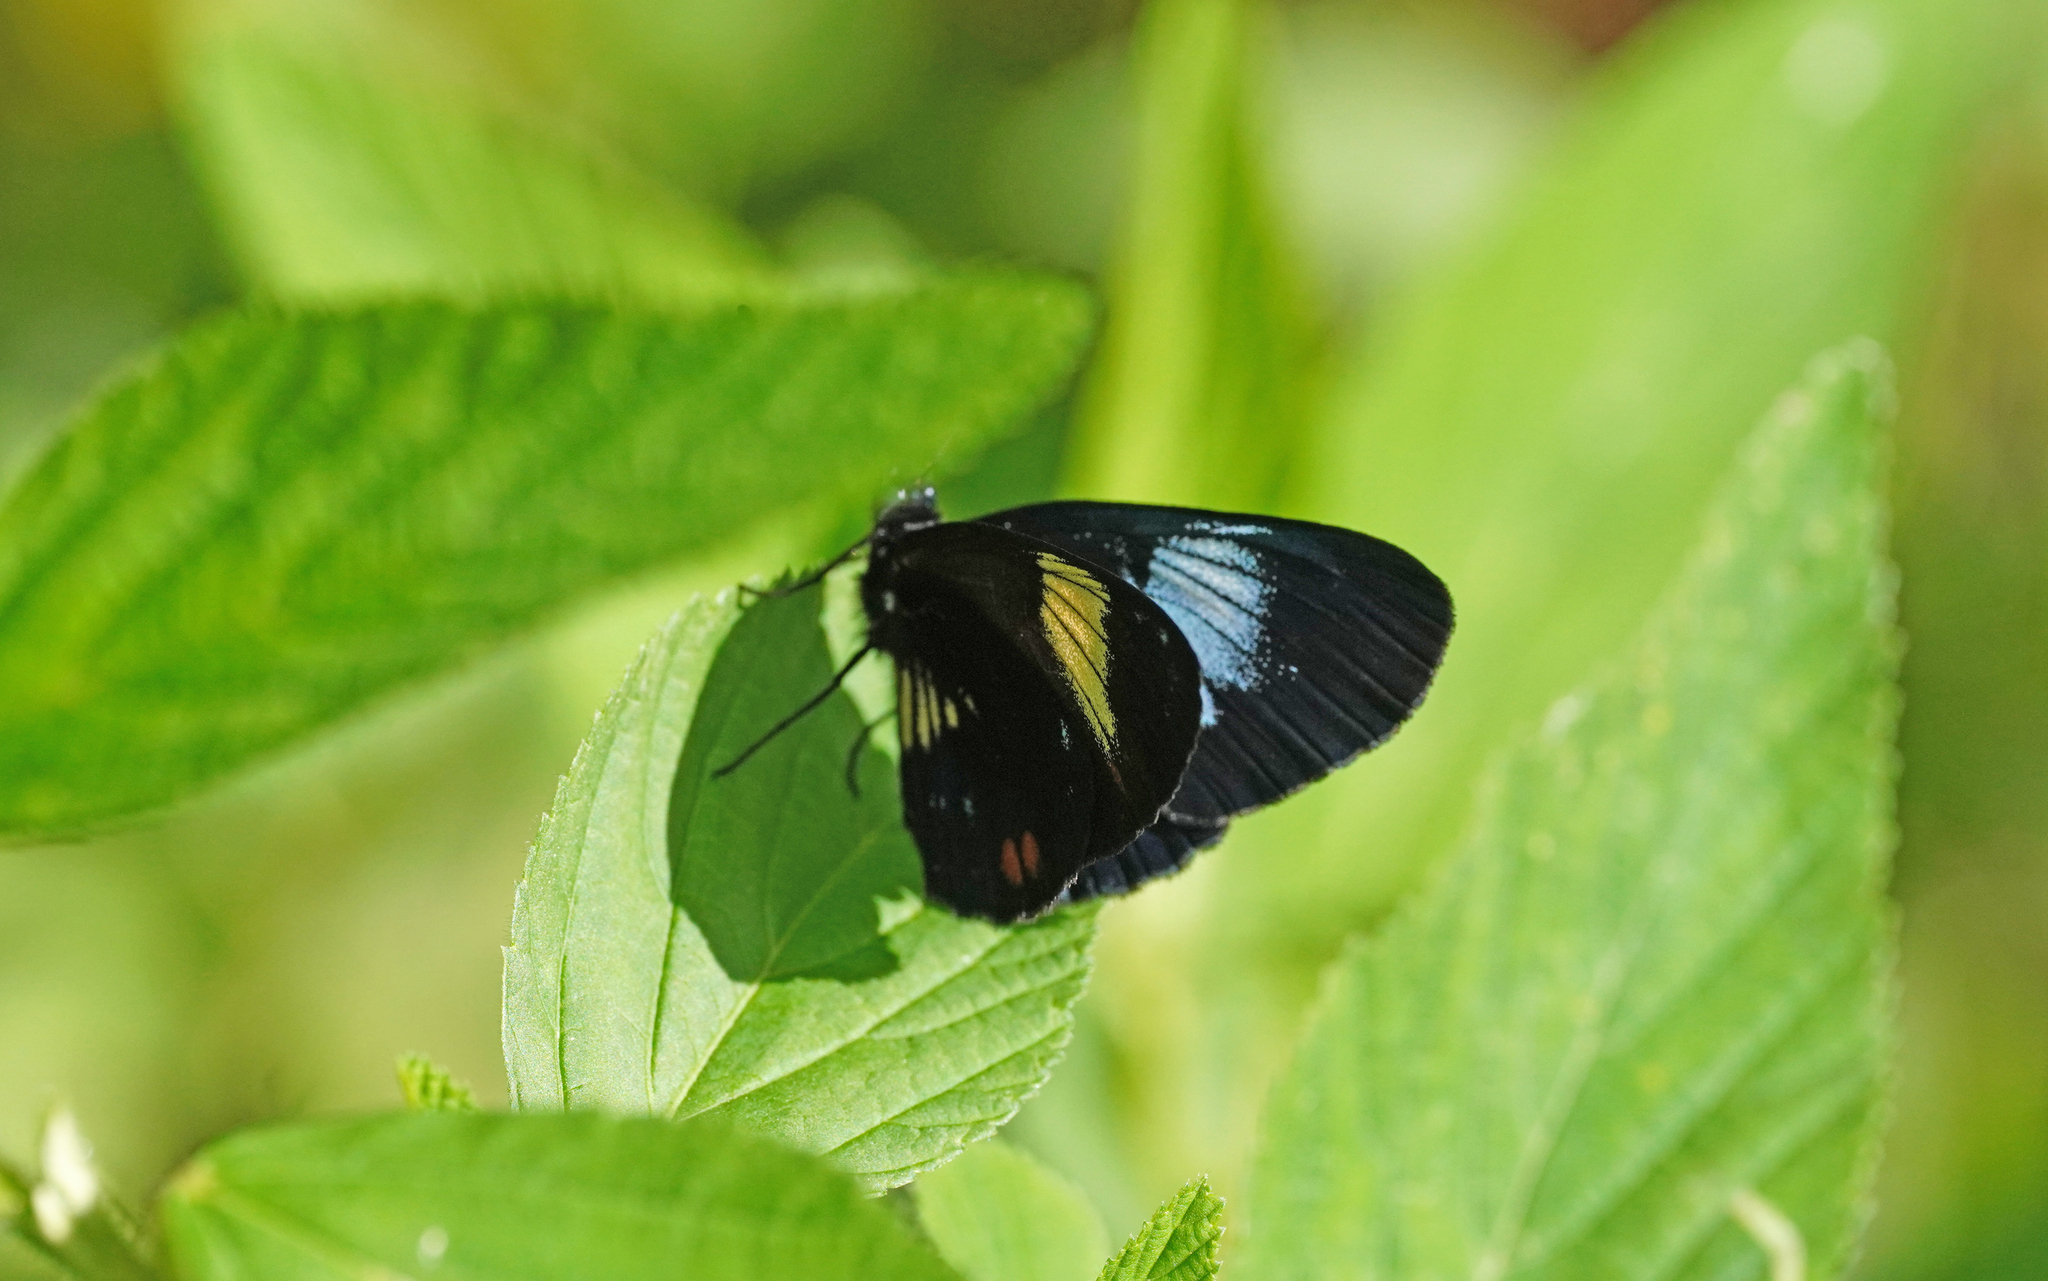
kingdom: Animalia
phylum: Arthropoda
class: Insecta
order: Lepidoptera
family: Nymphalidae
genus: Eresia
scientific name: Eresia levina
